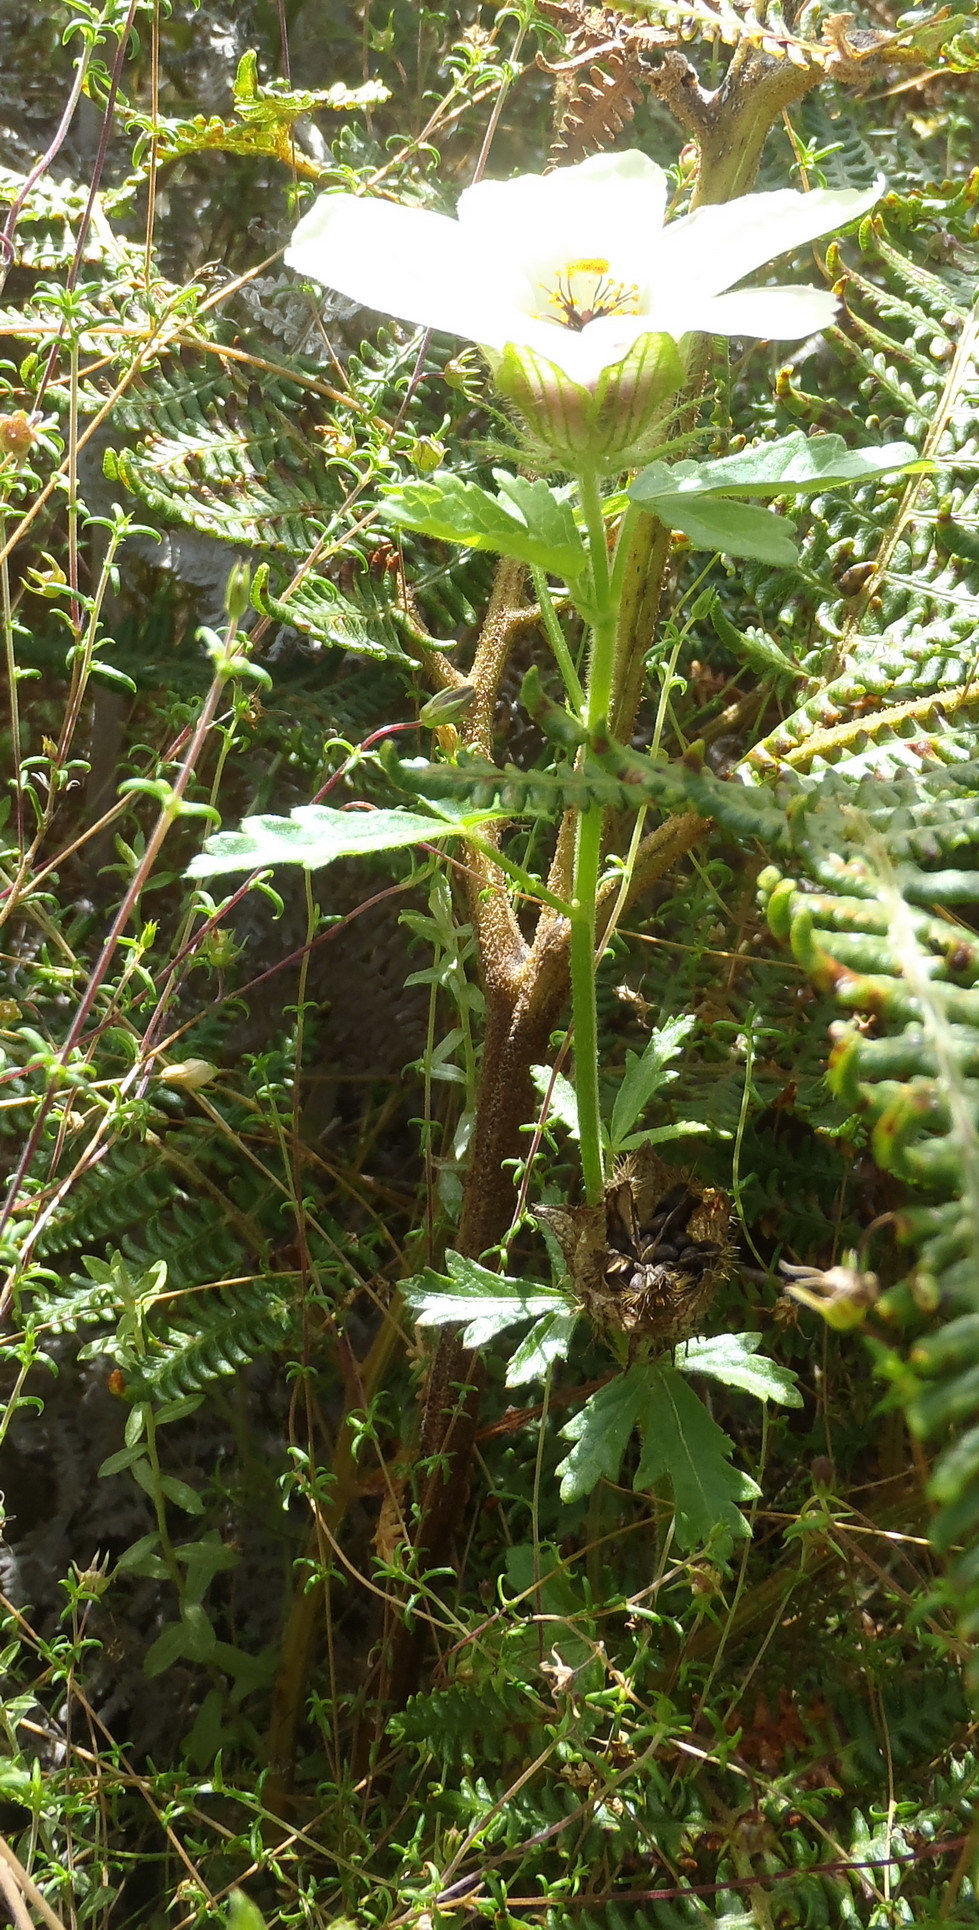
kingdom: Plantae
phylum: Tracheophyta
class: Magnoliopsida
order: Malvales
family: Malvaceae
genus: Hibiscus
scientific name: Hibiscus trionum
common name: Bladder ketmia
